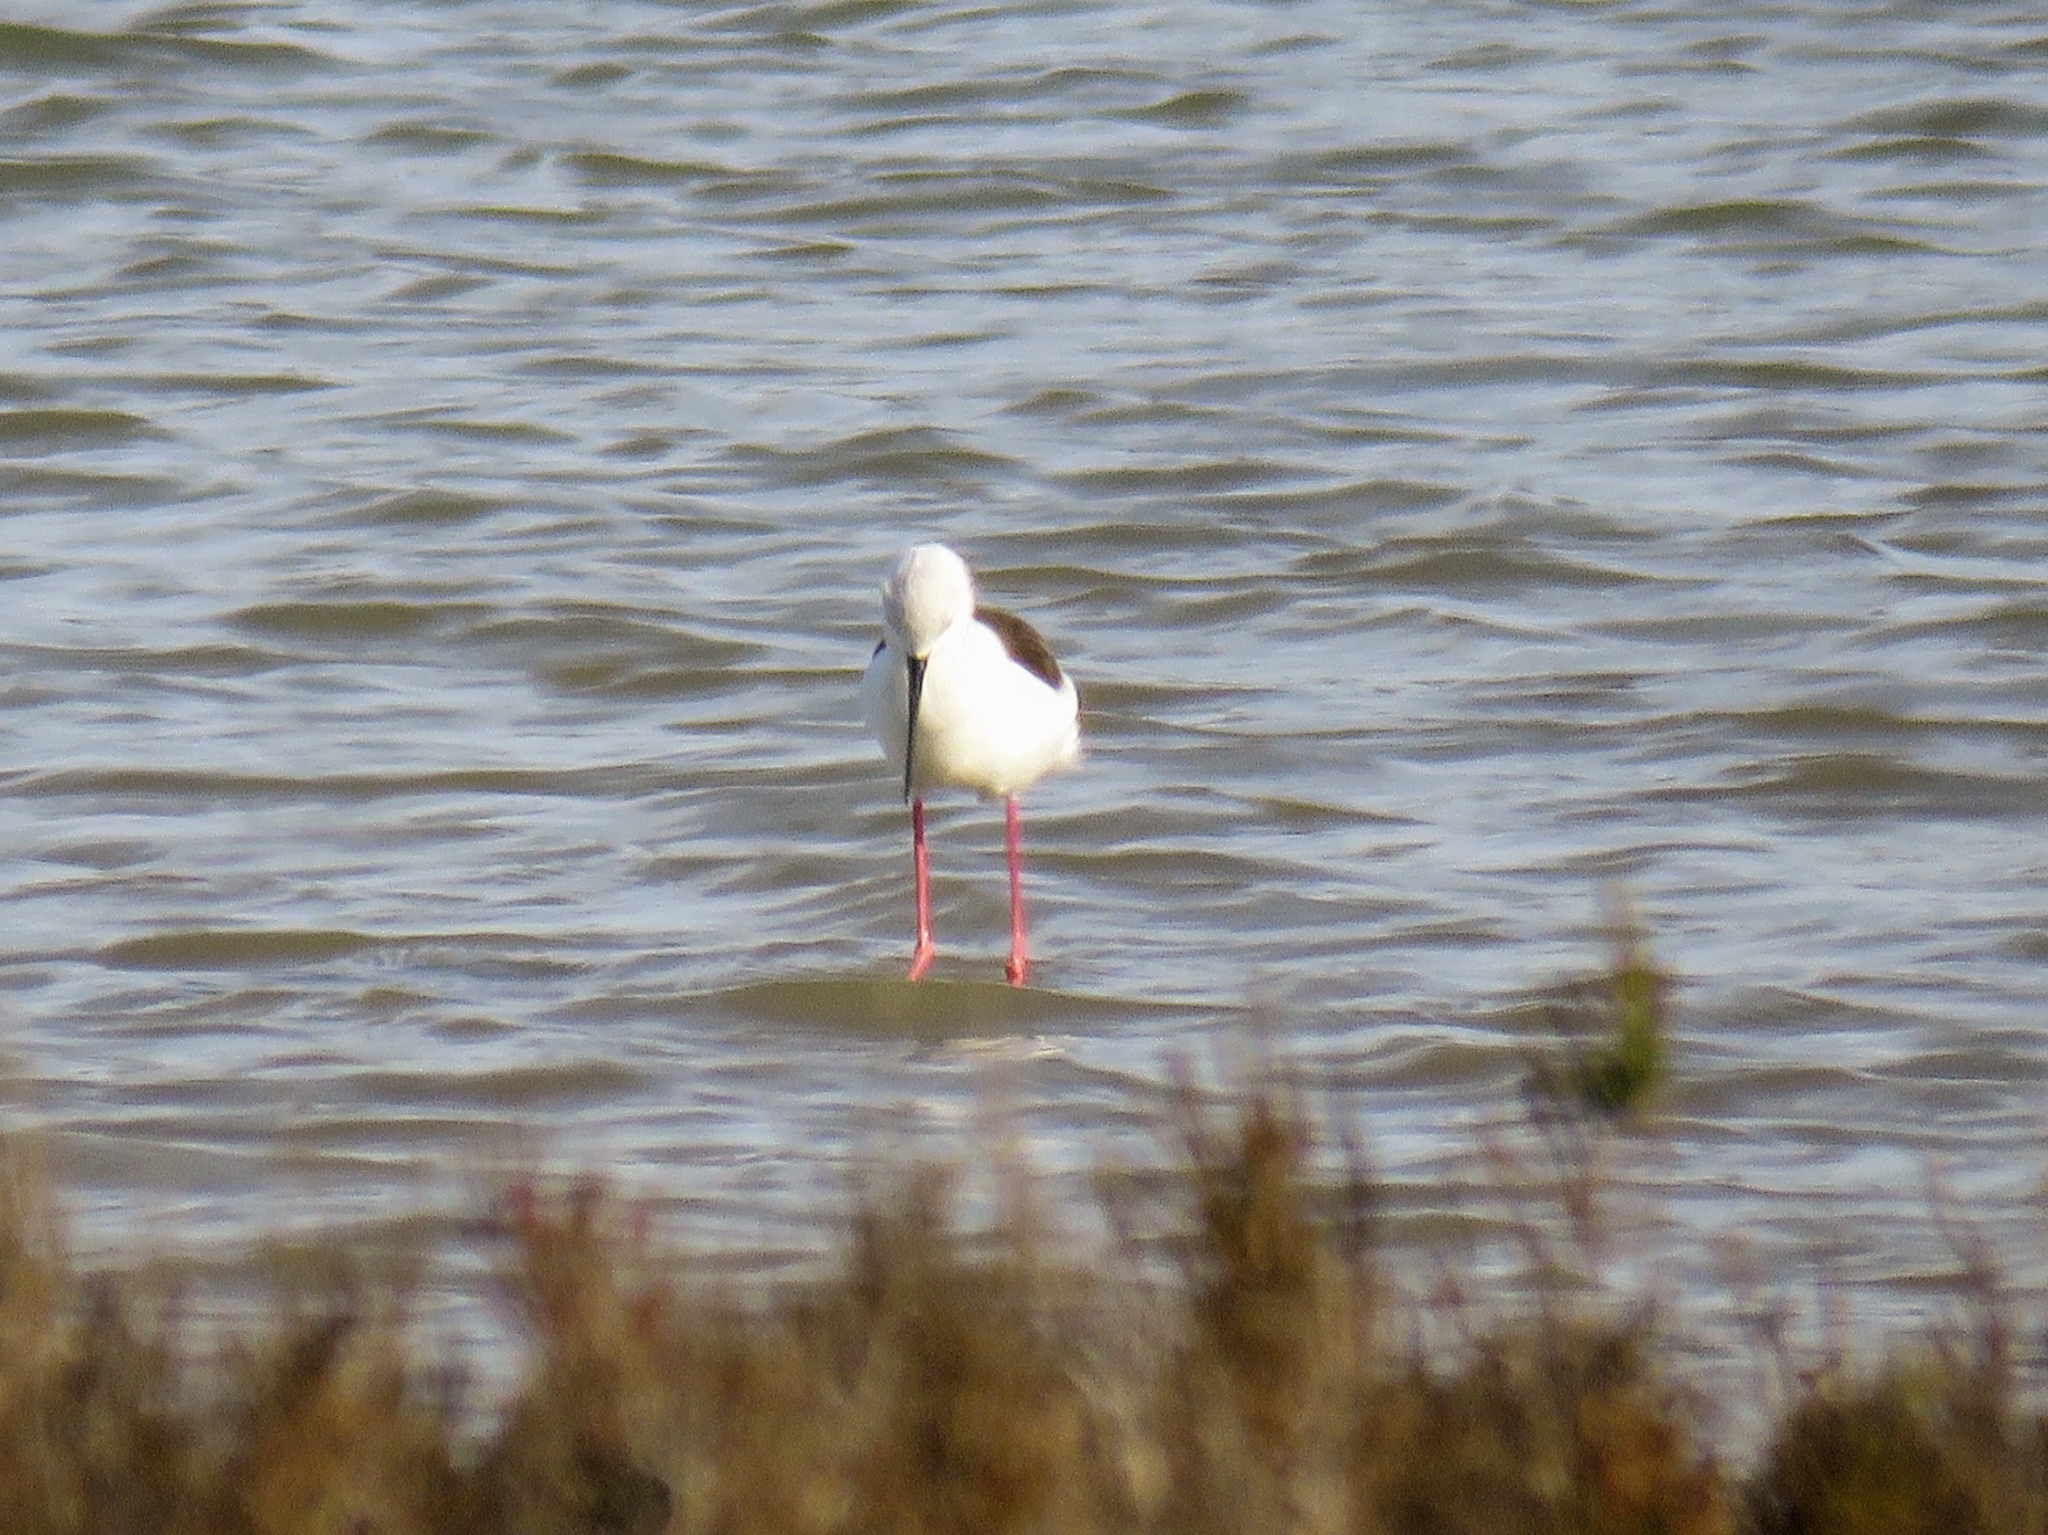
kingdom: Animalia
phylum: Chordata
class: Aves
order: Charadriiformes
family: Recurvirostridae
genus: Himantopus
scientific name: Himantopus himantopus
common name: Black-winged stilt
